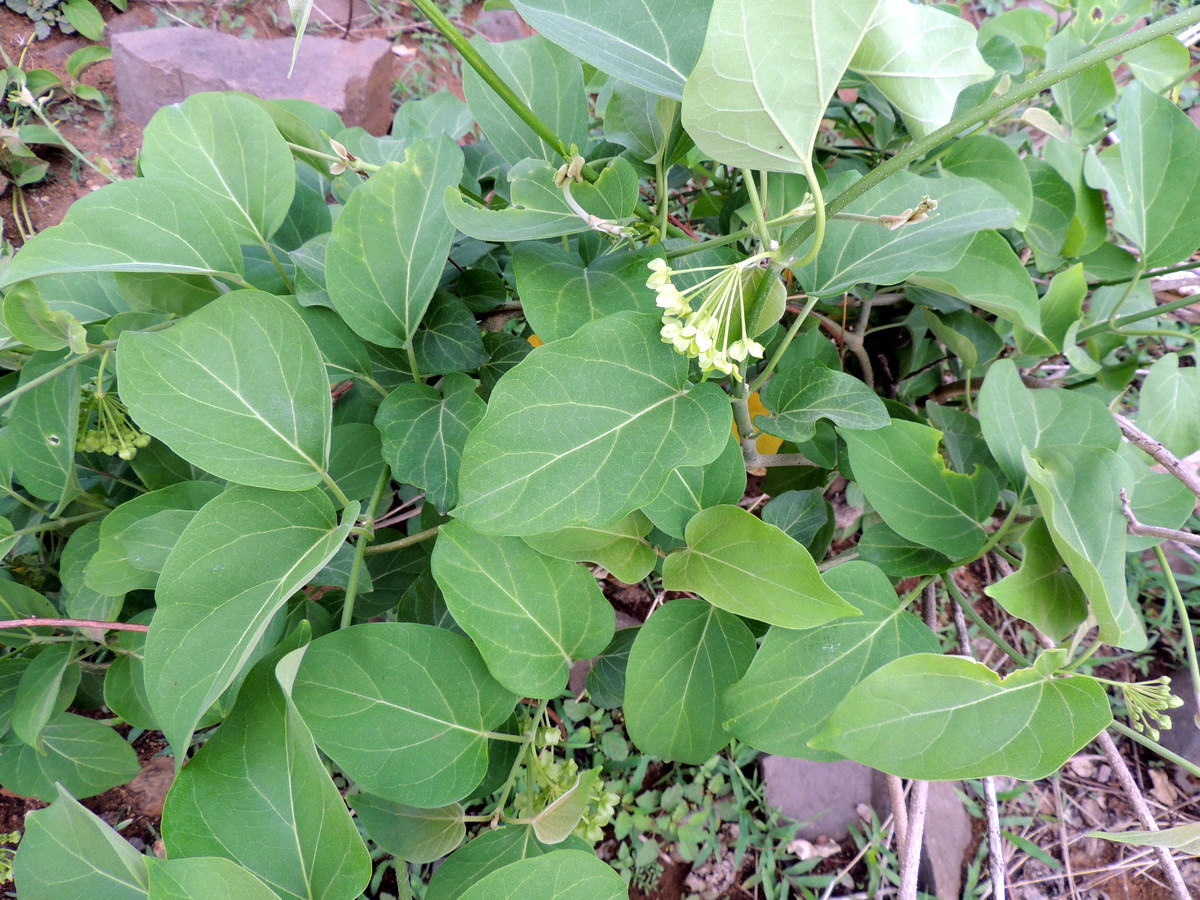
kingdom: Plantae
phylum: Tracheophyta
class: Magnoliopsida
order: Gentianales
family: Apocynaceae
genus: Stephanotis
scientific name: Stephanotis volubilis
